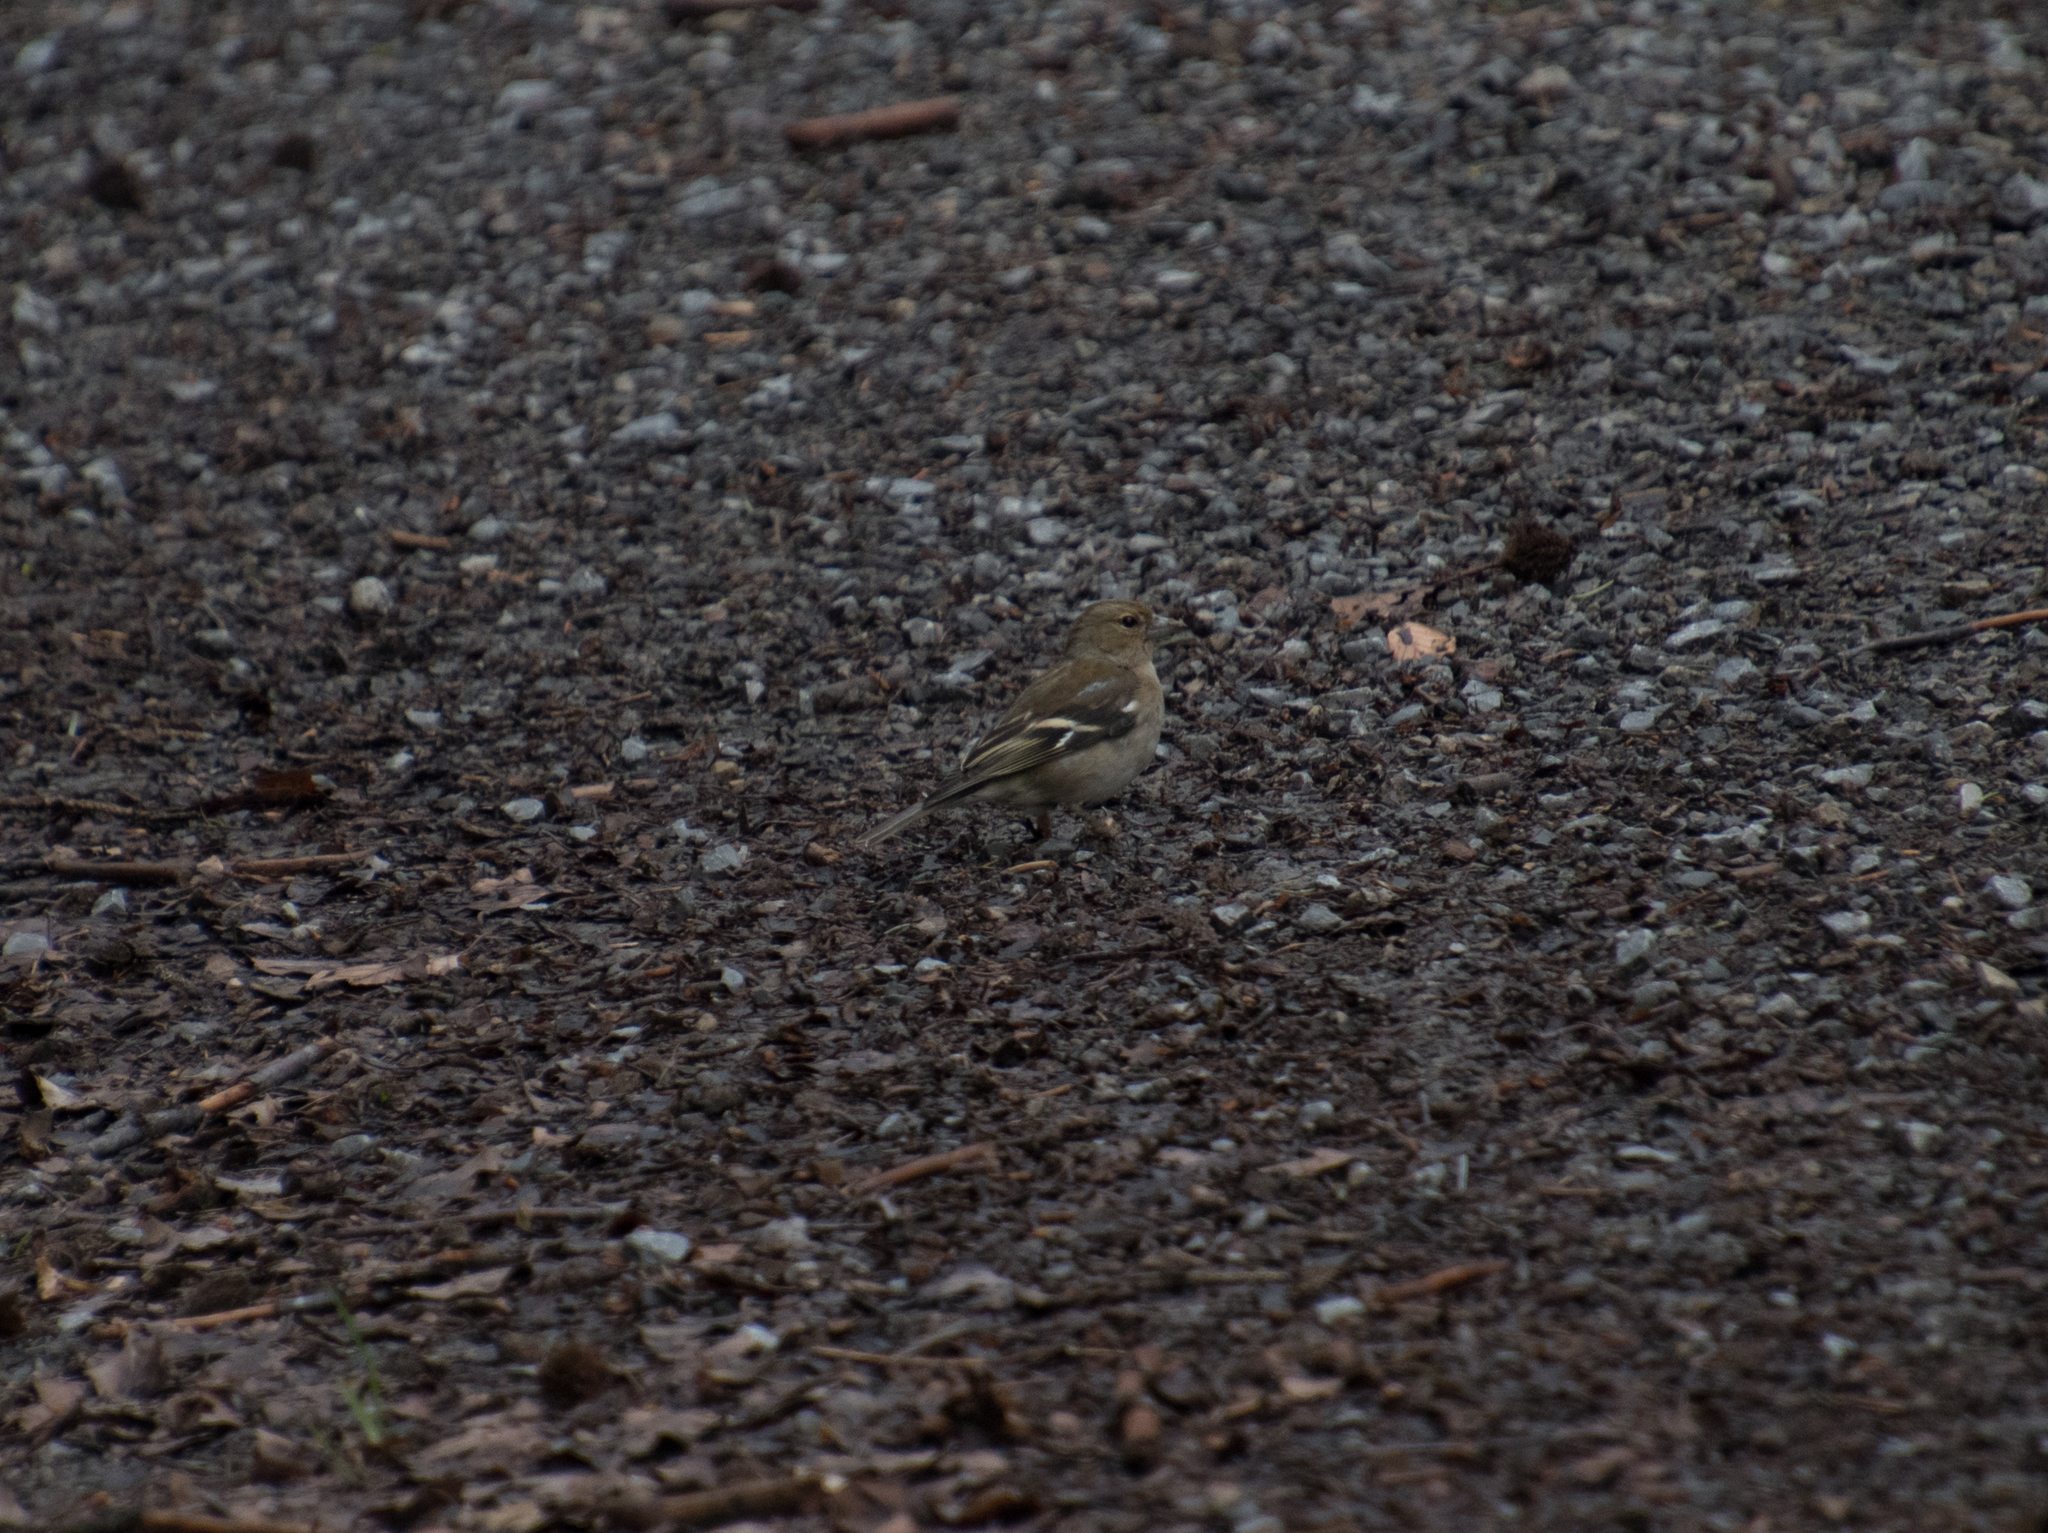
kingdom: Animalia
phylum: Chordata
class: Aves
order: Passeriformes
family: Fringillidae
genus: Fringilla
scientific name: Fringilla coelebs
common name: Common chaffinch
